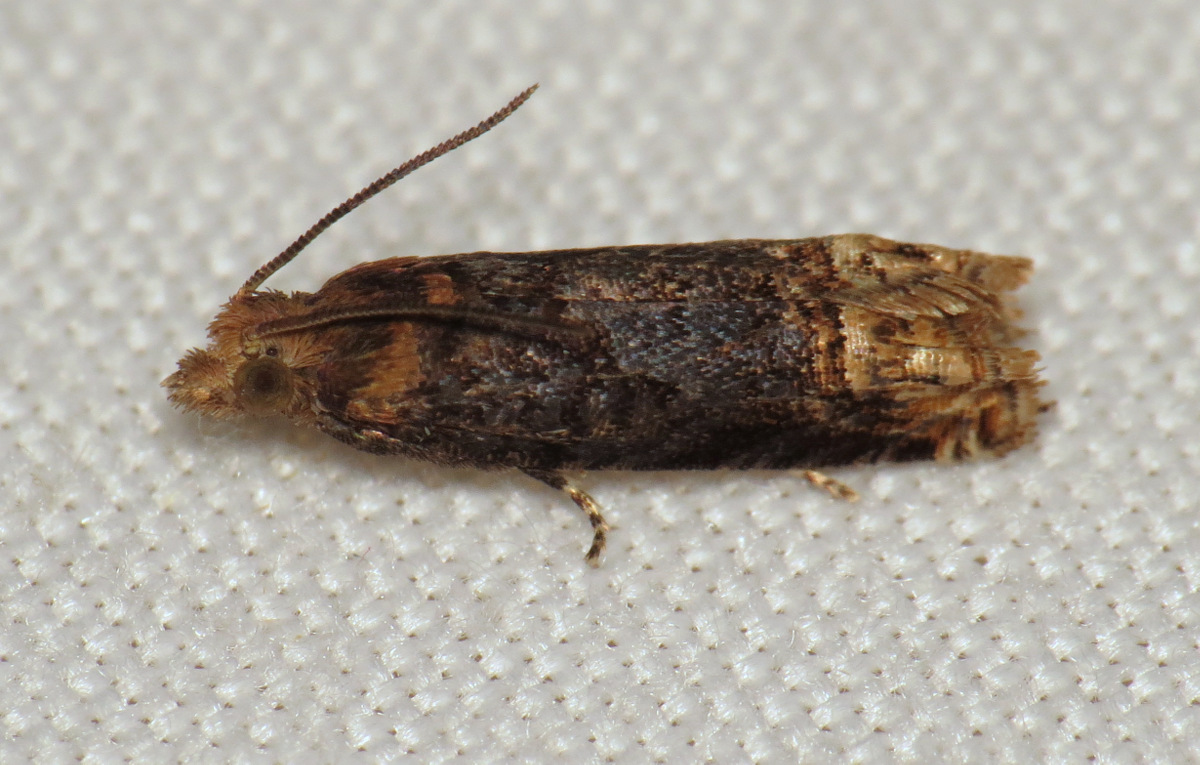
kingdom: Animalia
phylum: Arthropoda
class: Insecta
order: Lepidoptera
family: Tortricidae
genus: Eucosma
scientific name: Eucosma ochroterminana
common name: Buff-tipped eucosma moth
